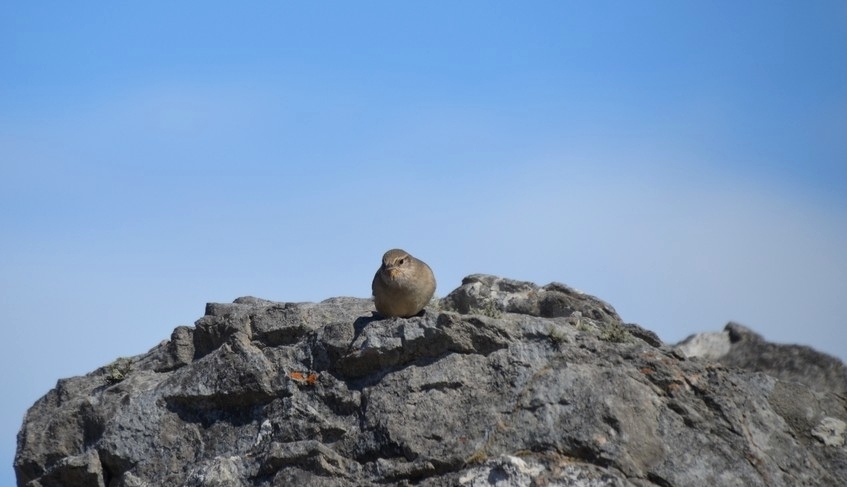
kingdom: Animalia
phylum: Chordata
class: Aves
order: Passeriformes
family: Furnariidae
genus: Asthenes
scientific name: Asthenes modesta
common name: Cordilleran canastero
